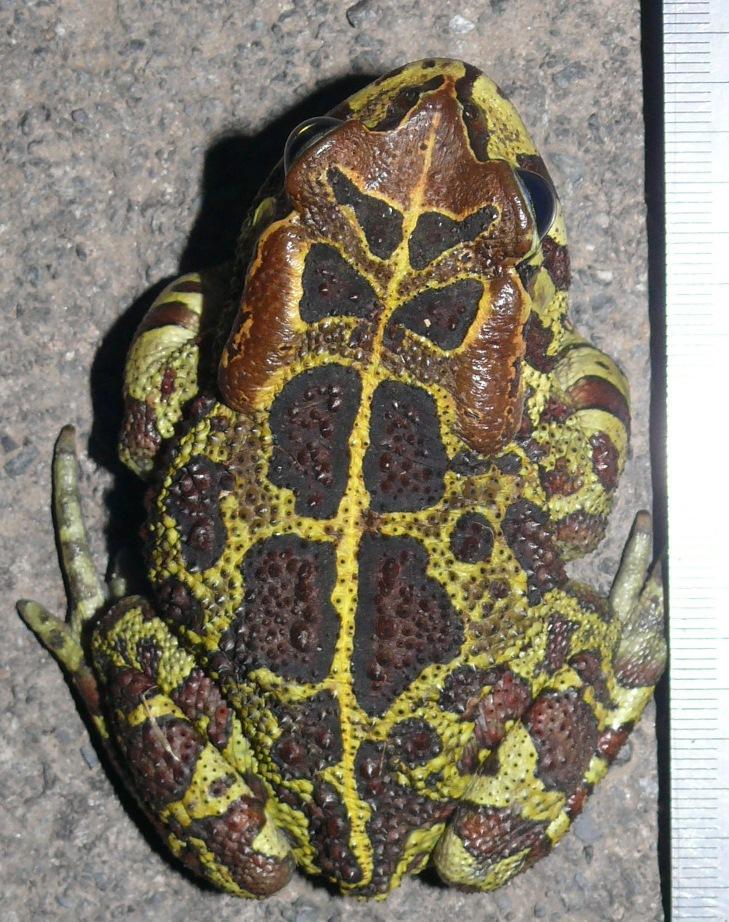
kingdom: Animalia
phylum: Chordata
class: Amphibia
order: Anura
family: Bufonidae
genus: Sclerophrys
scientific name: Sclerophrys pantherina
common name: Panther toad
